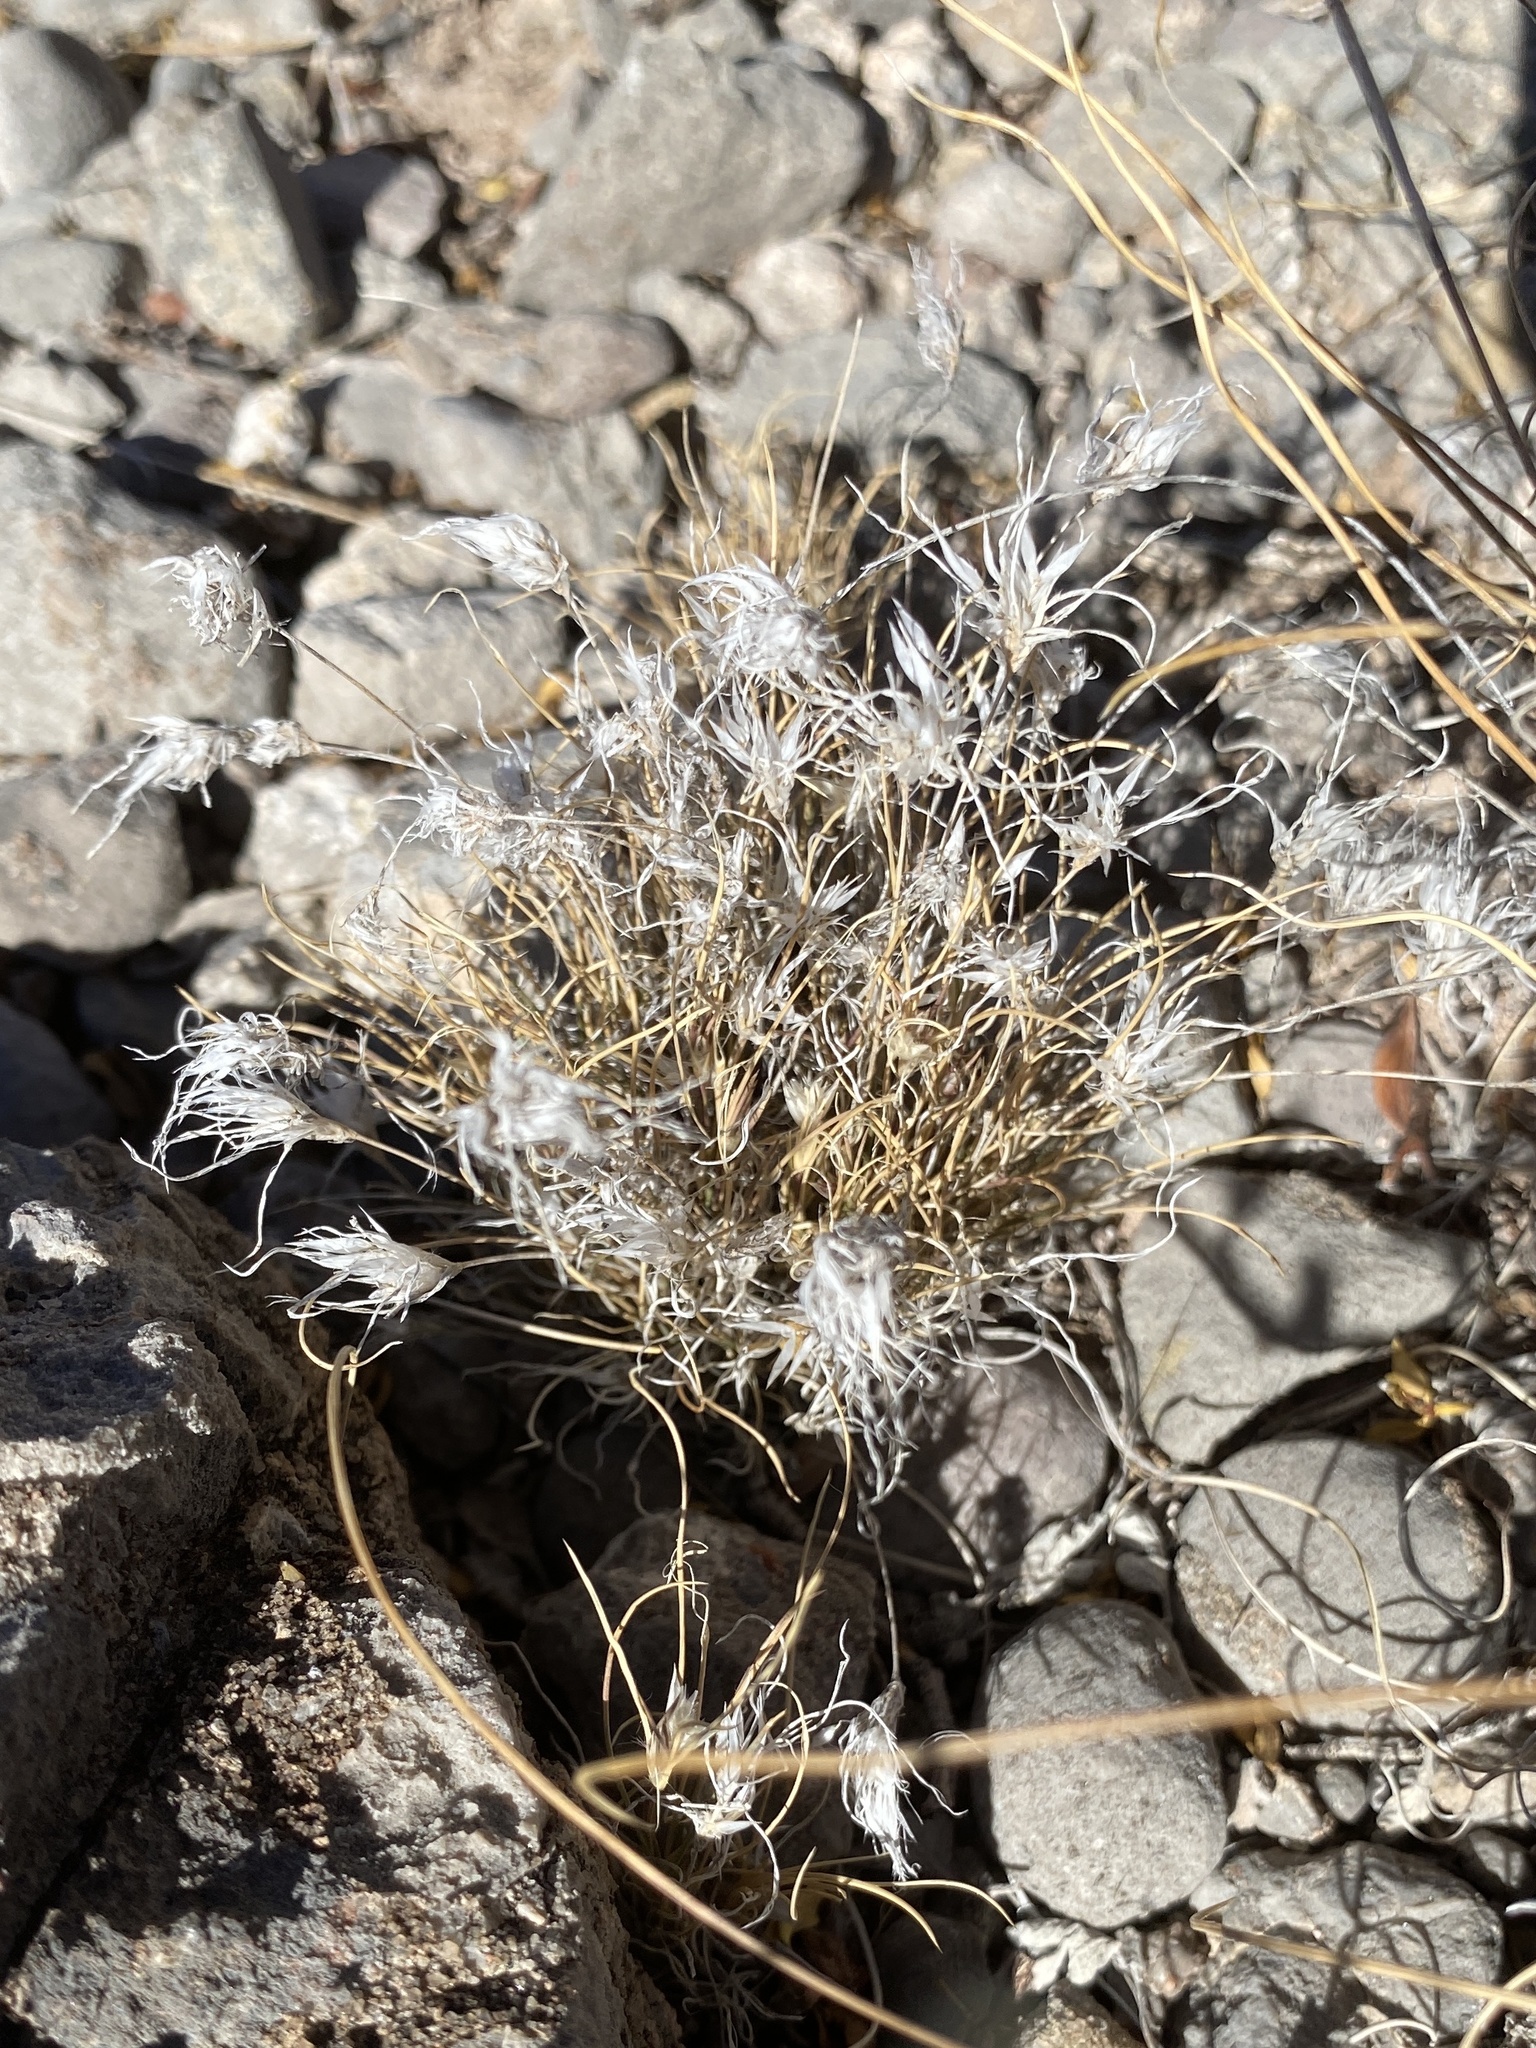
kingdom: Plantae
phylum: Tracheophyta
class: Liliopsida
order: Poales
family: Poaceae
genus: Dasyochloa
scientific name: Dasyochloa pulchella
